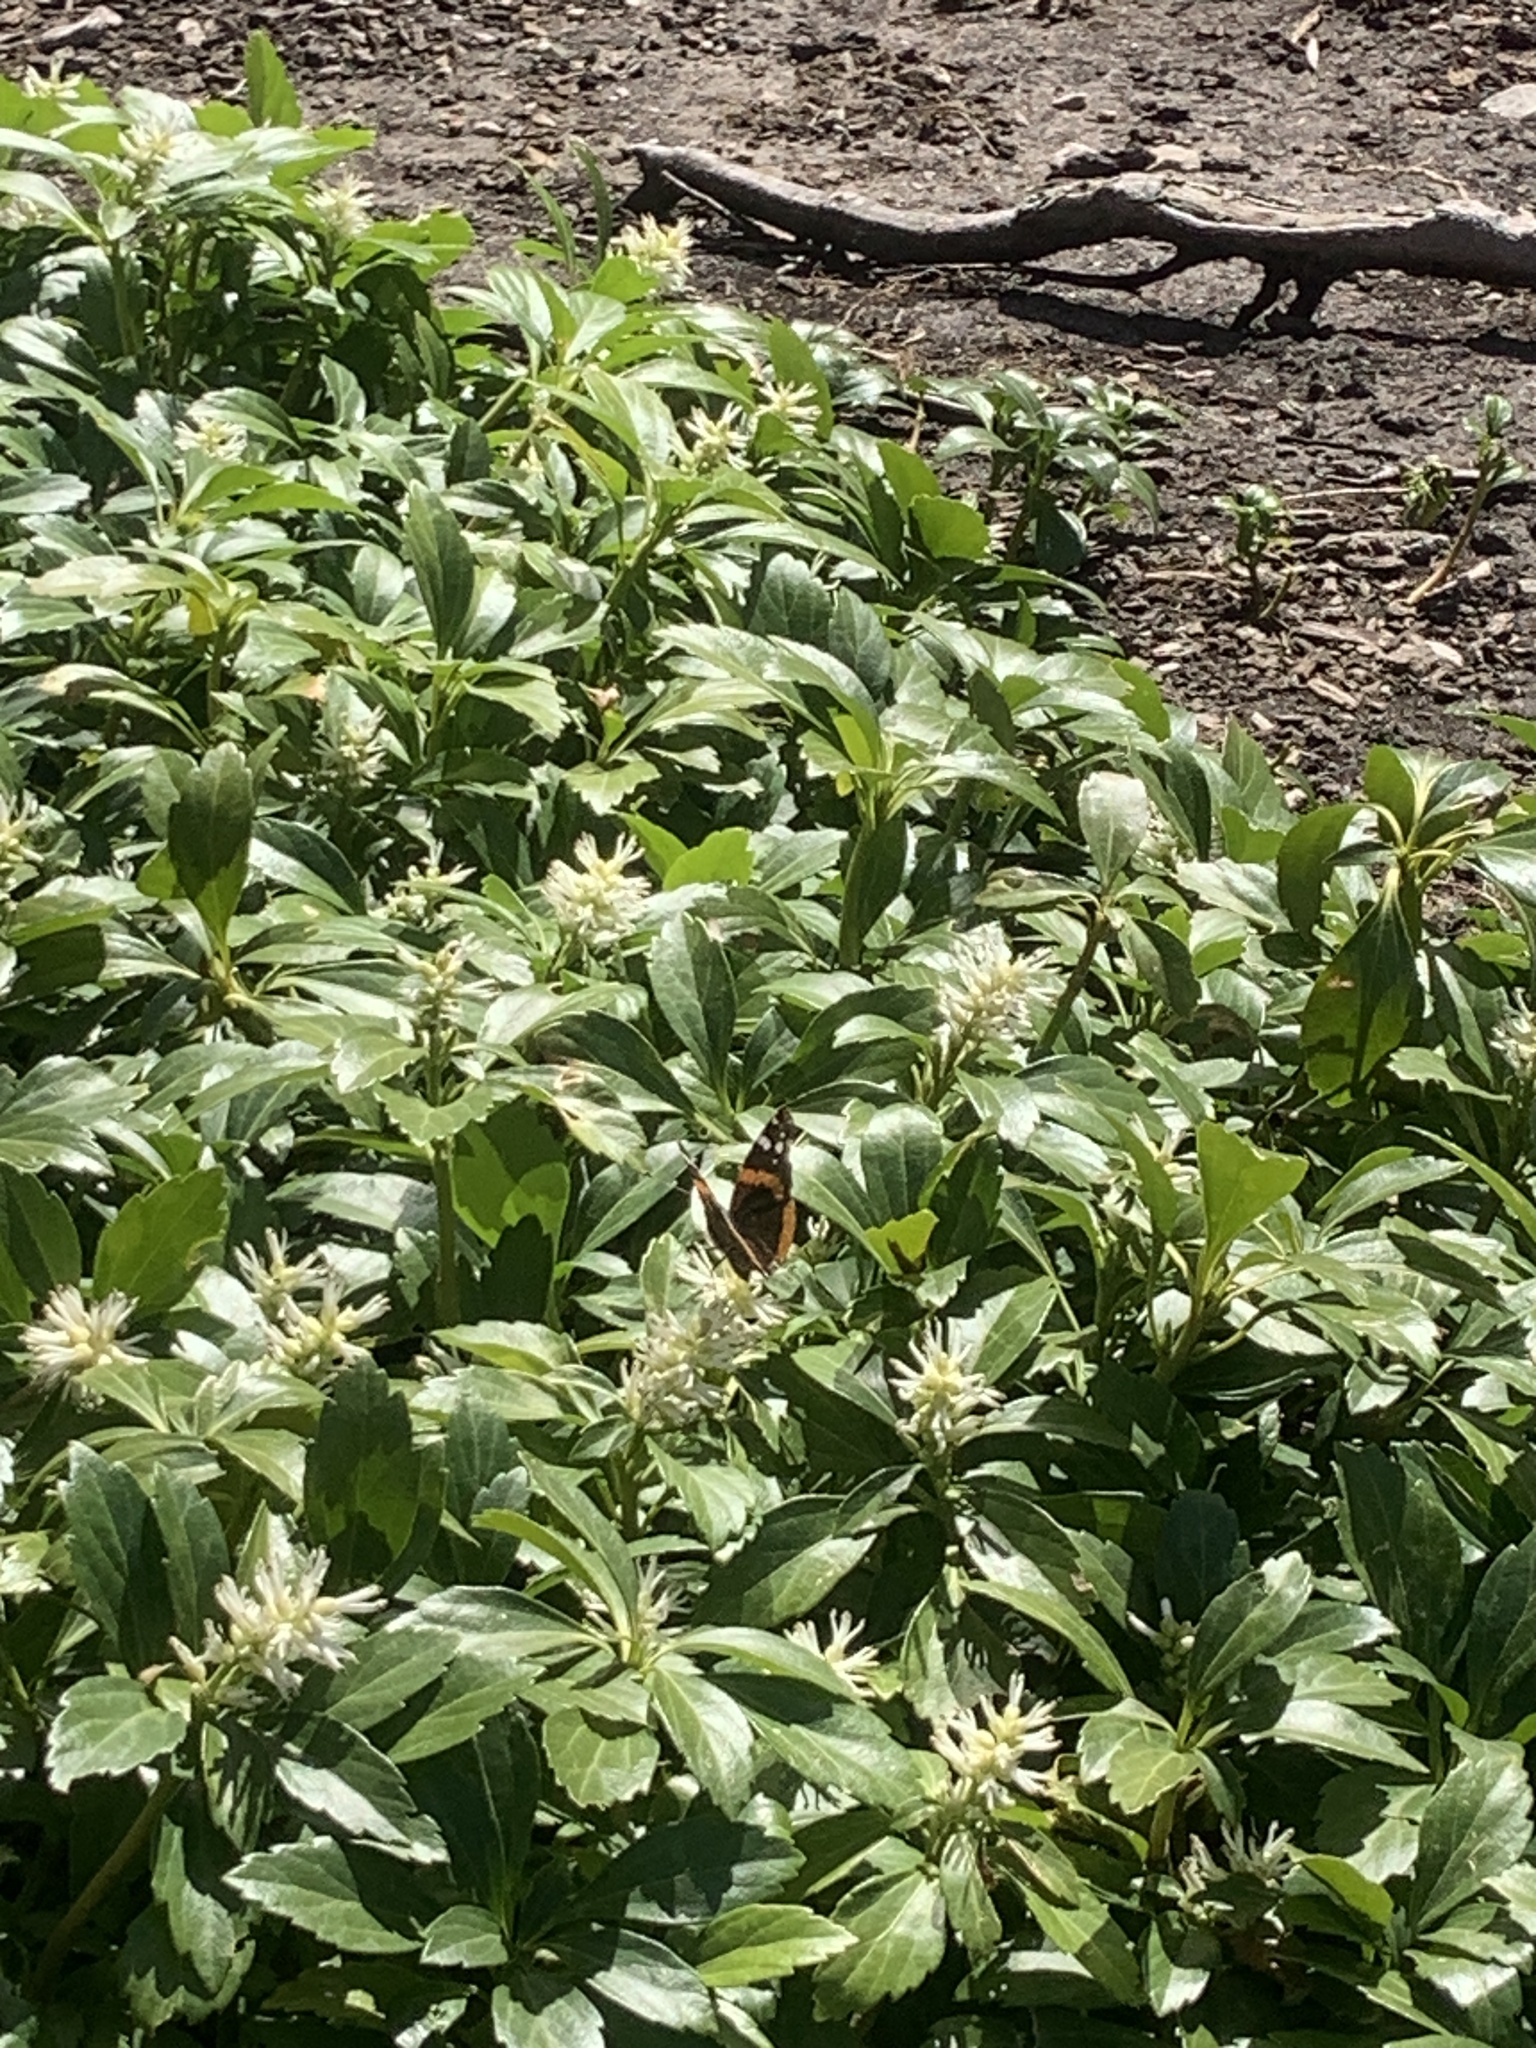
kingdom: Animalia
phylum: Arthropoda
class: Insecta
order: Lepidoptera
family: Nymphalidae
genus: Vanessa
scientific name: Vanessa atalanta
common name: Red admiral
